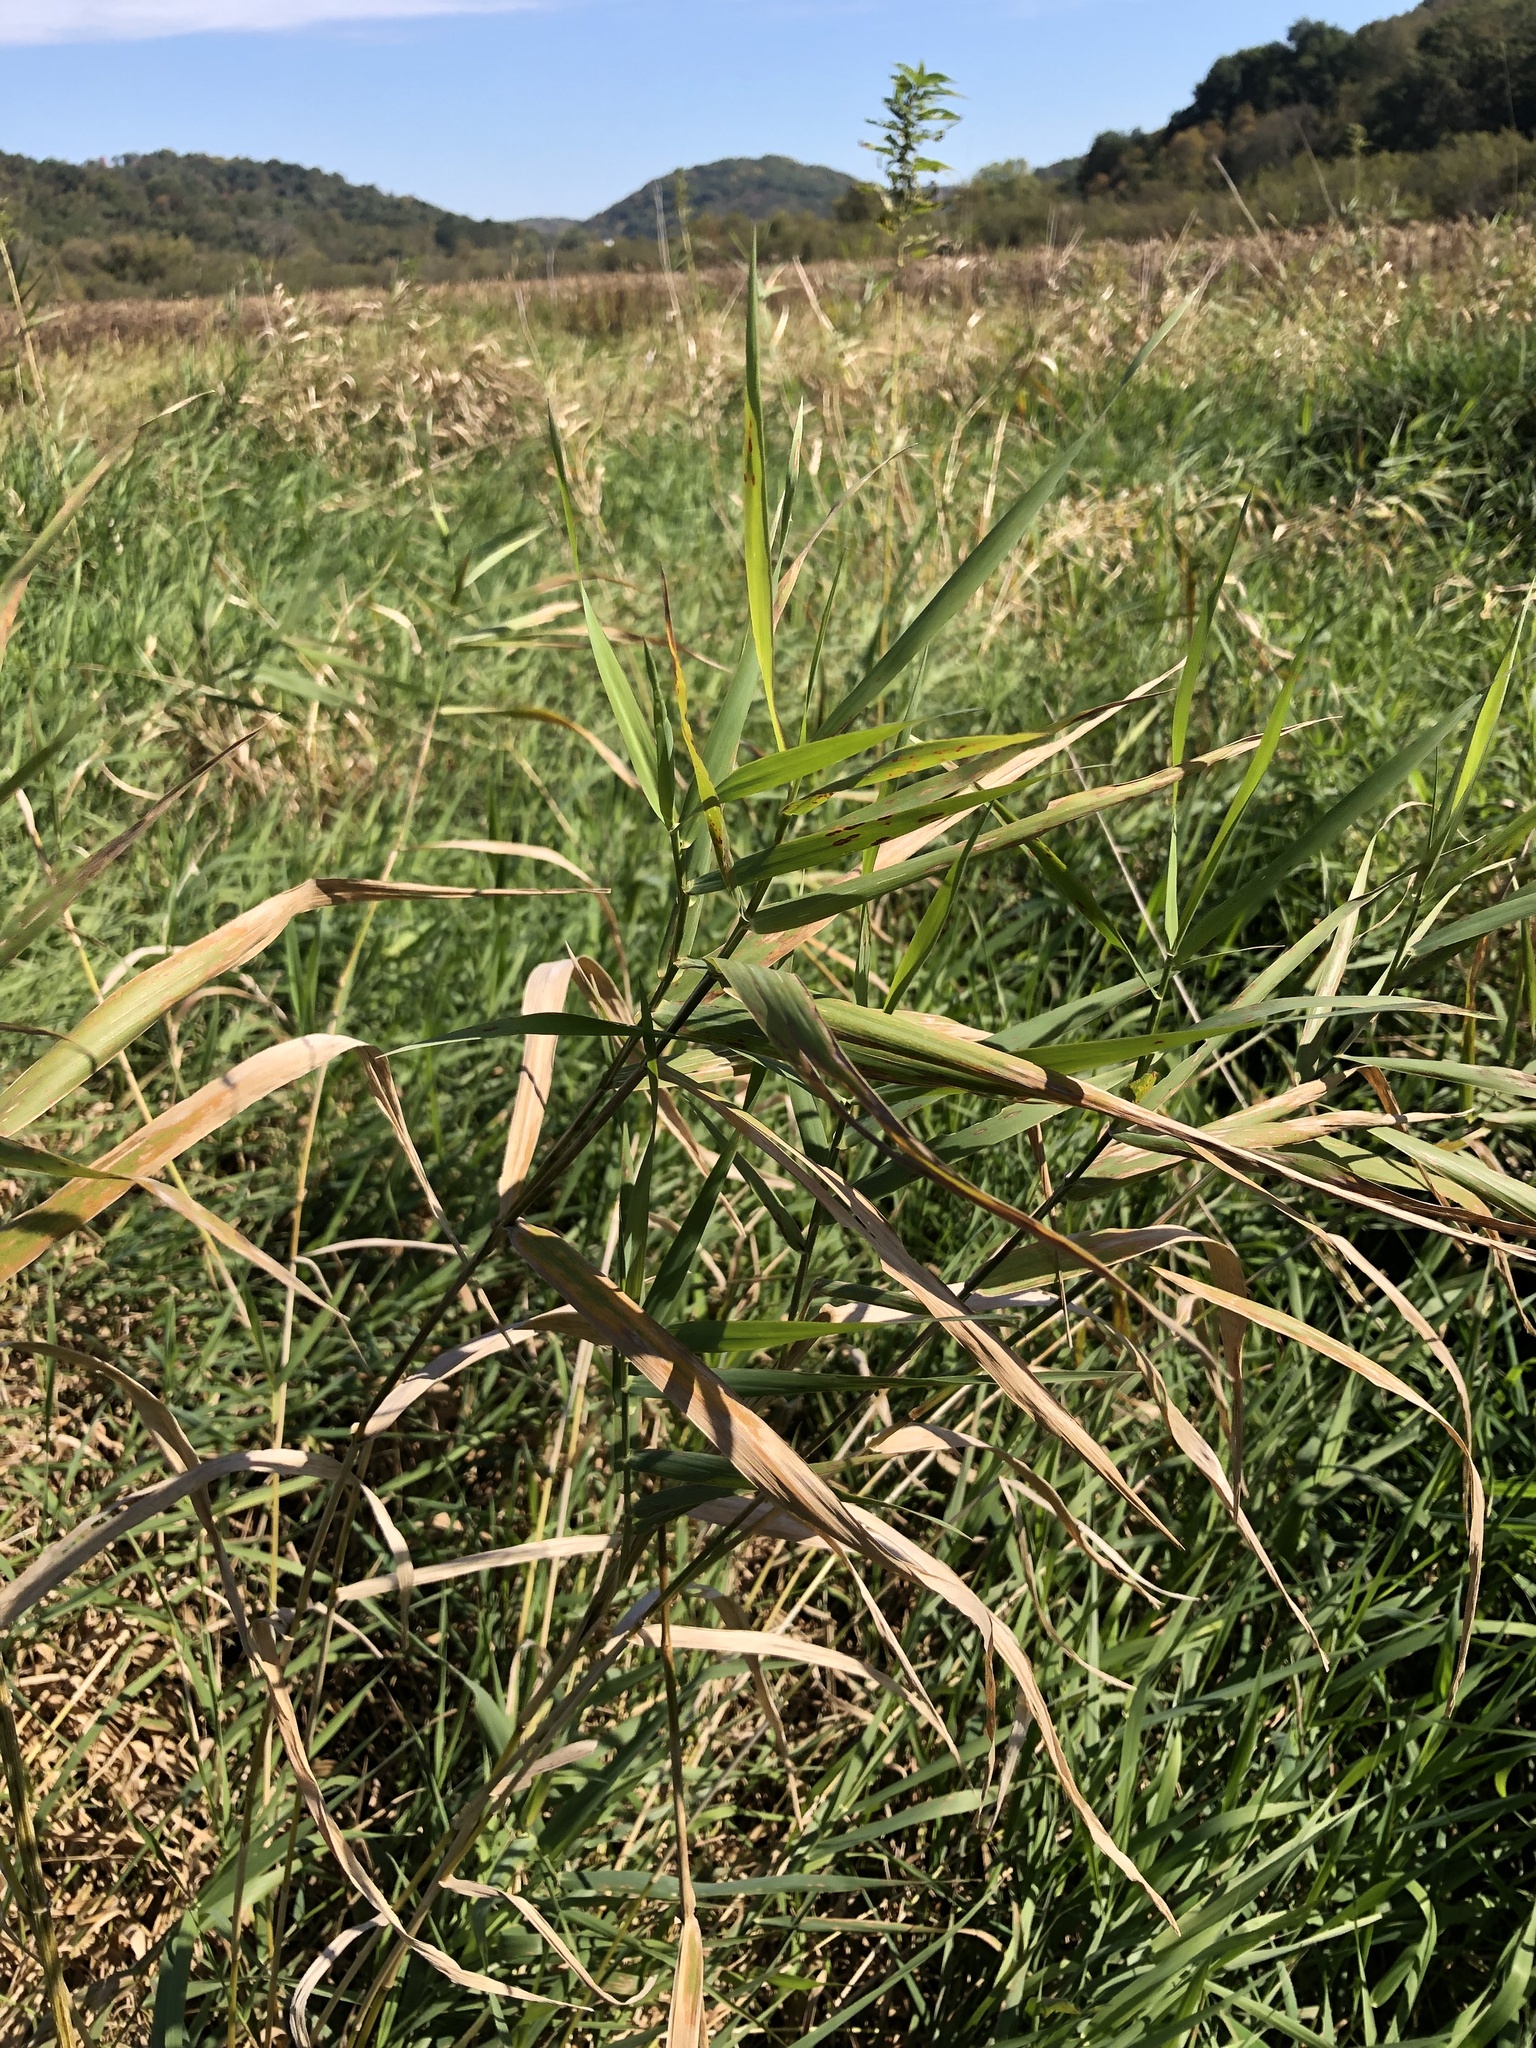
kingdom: Plantae
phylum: Tracheophyta
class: Liliopsida
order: Poales
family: Poaceae
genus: Phalaris
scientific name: Phalaris arundinacea
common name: Reed canary-grass
